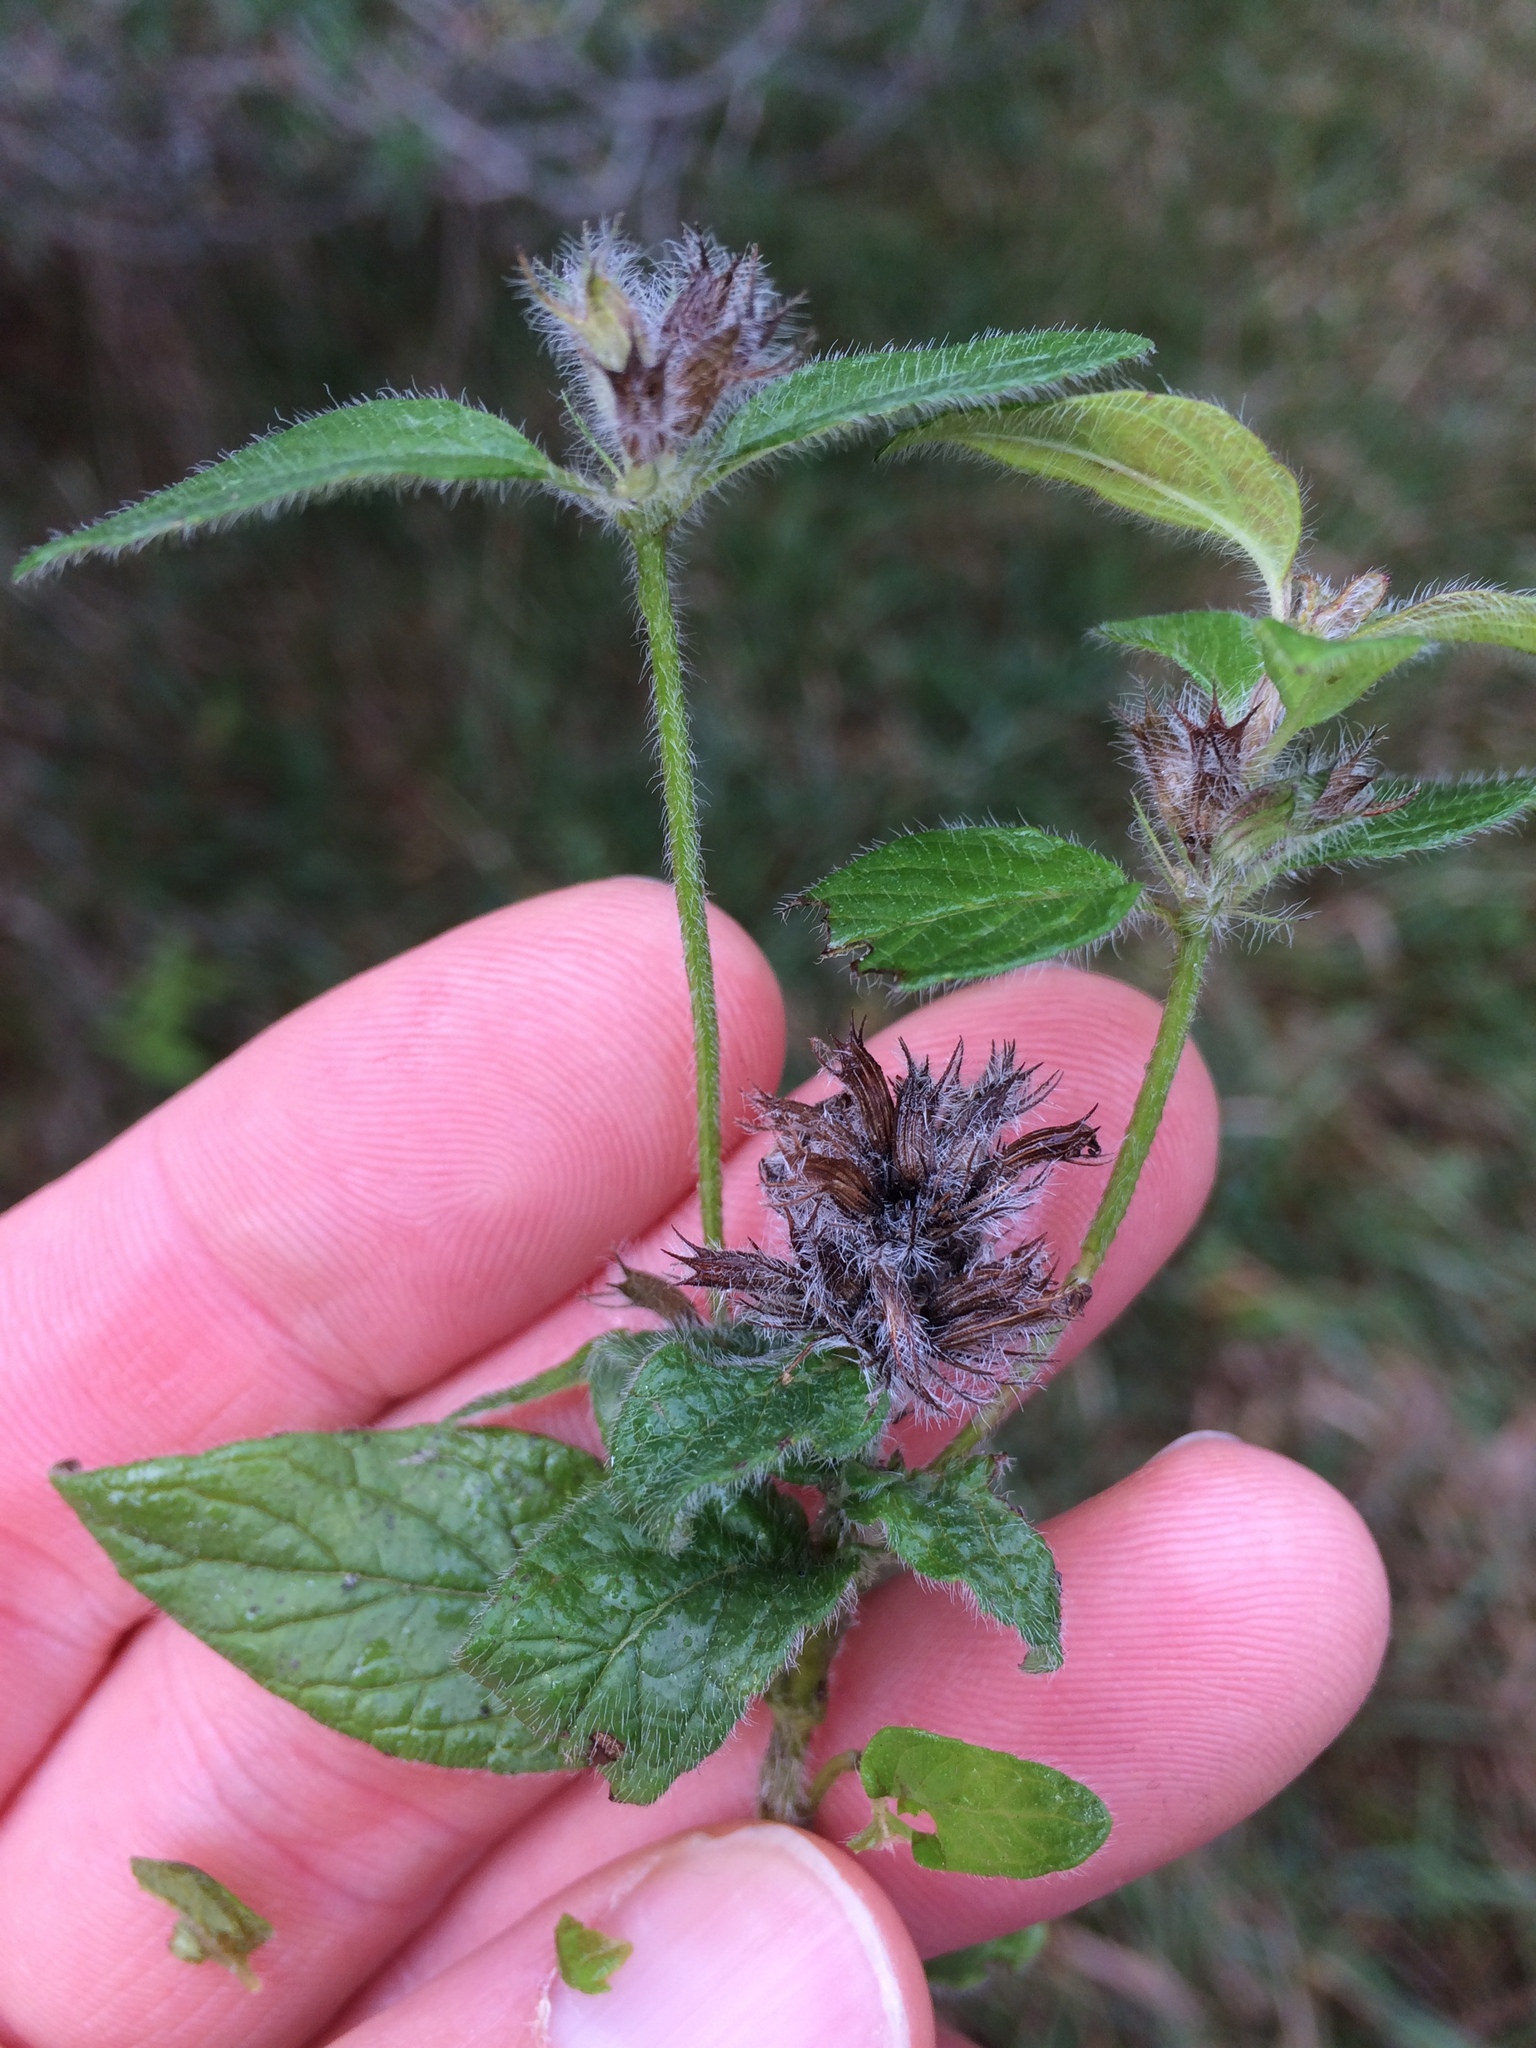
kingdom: Plantae
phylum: Tracheophyta
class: Magnoliopsida
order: Lamiales
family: Lamiaceae
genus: Clinopodium
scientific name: Clinopodium vulgare
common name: Wild basil
